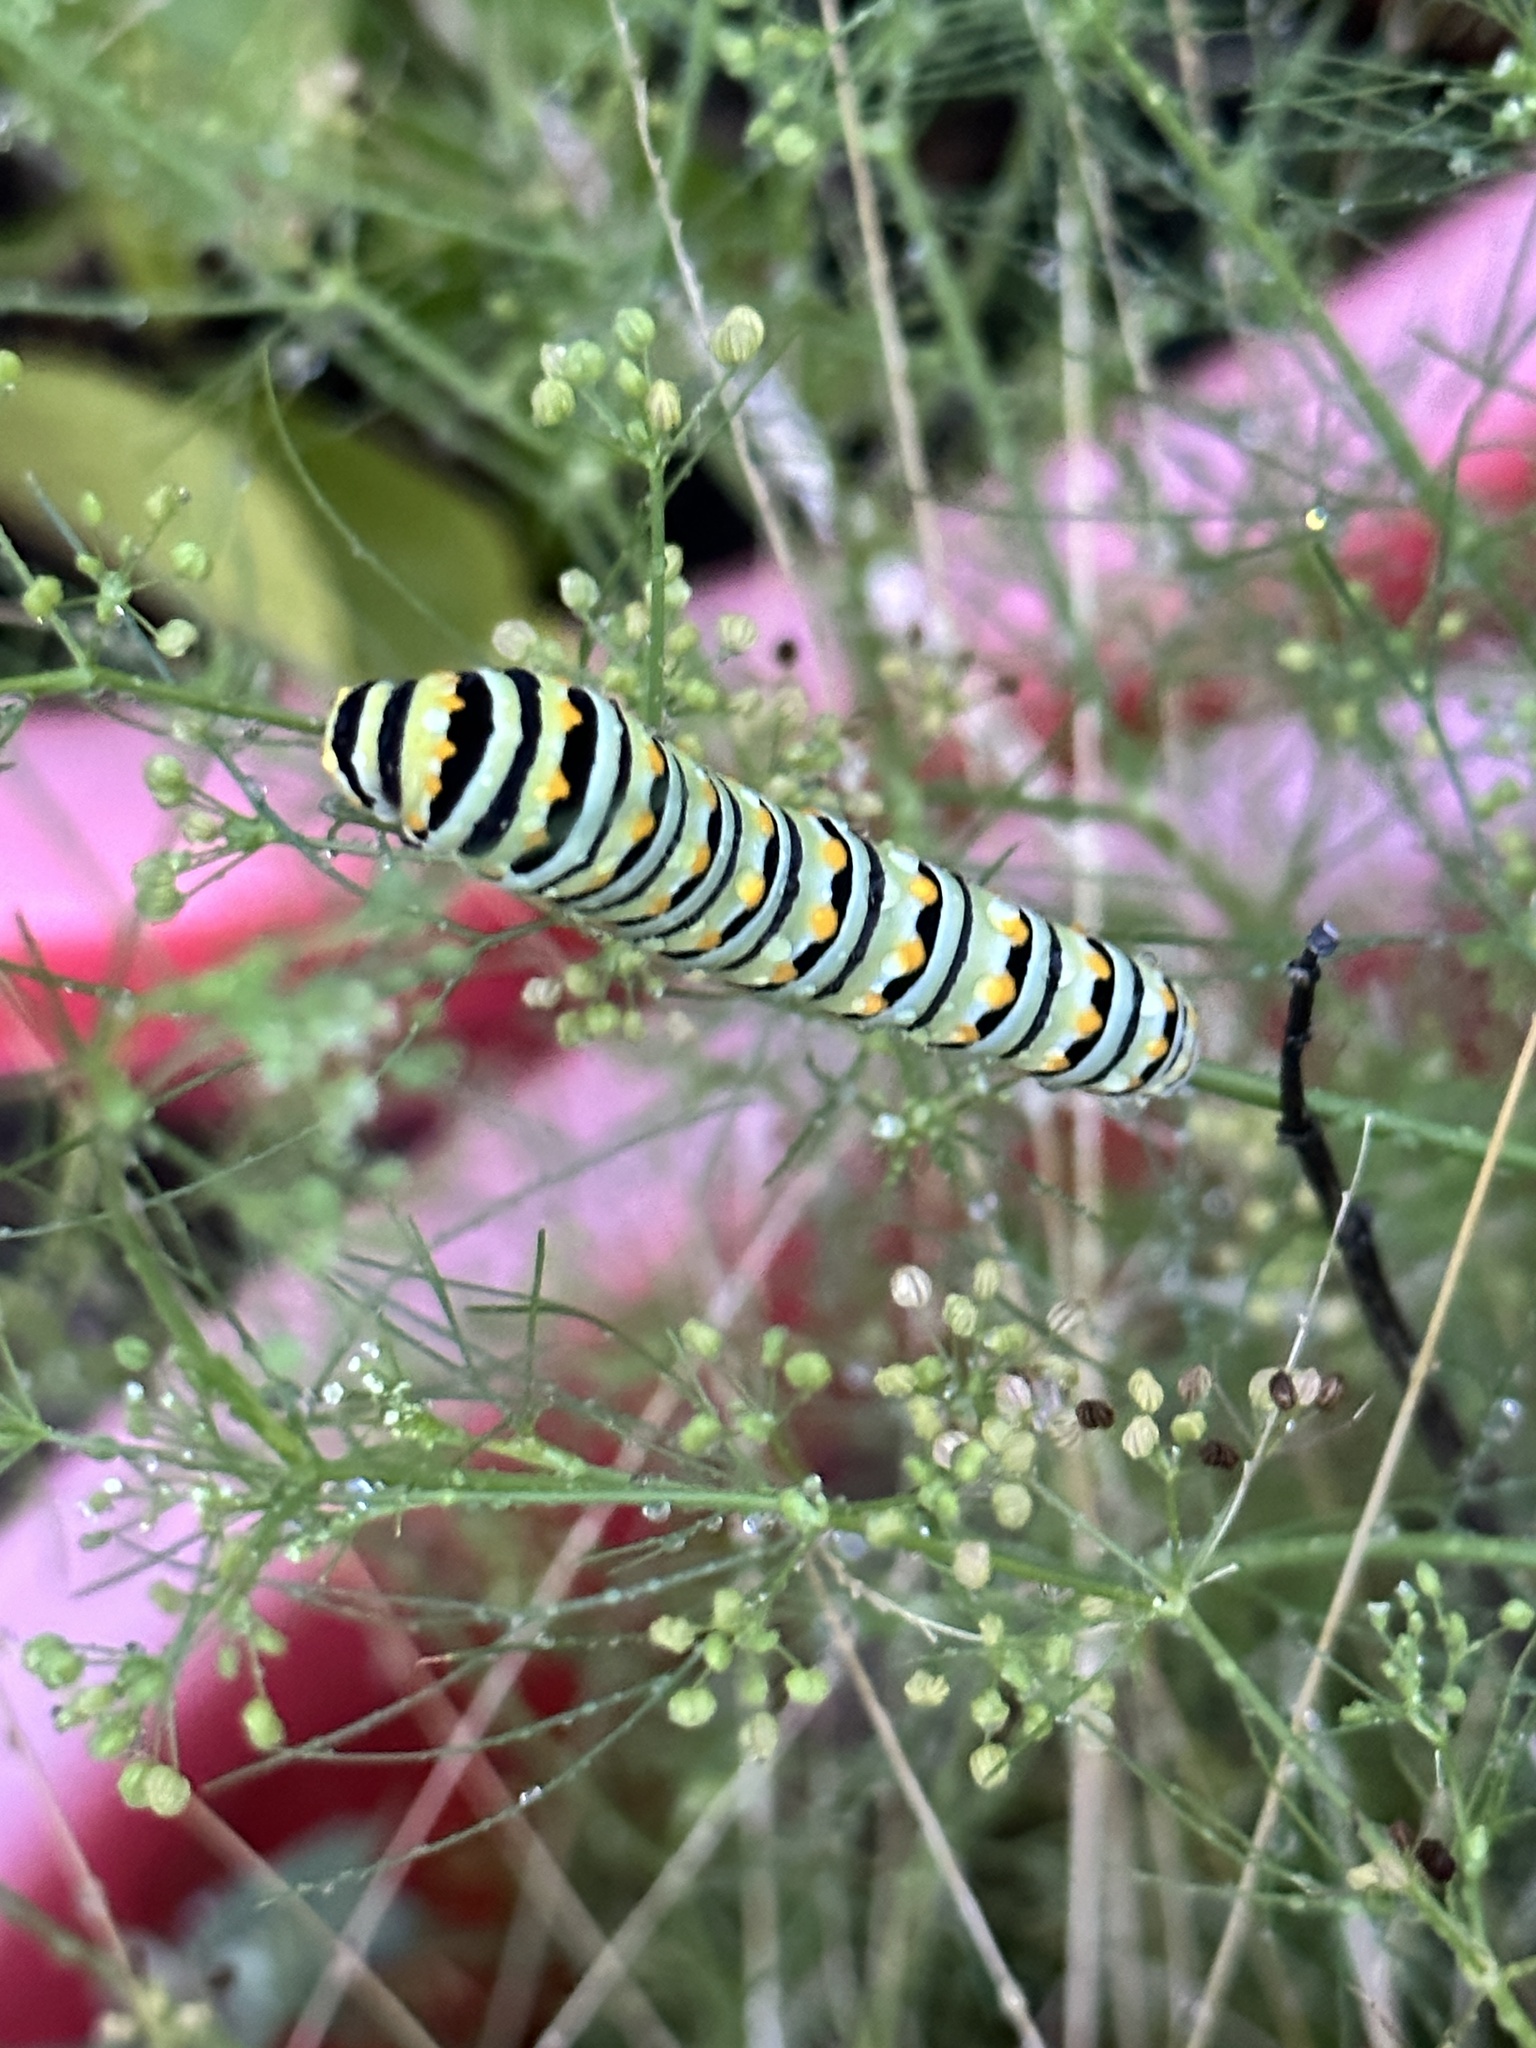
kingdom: Animalia
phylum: Arthropoda
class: Insecta
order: Lepidoptera
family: Papilionidae
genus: Papilio
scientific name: Papilio polyxenes
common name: Black swallowtail
